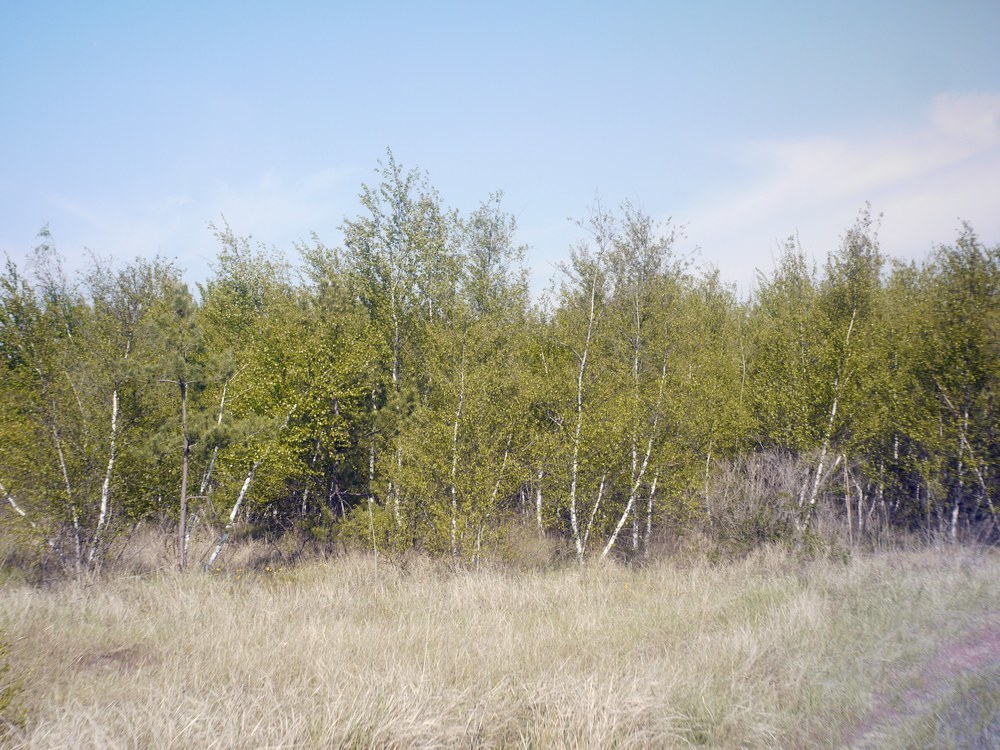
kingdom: Plantae
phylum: Tracheophyta
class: Magnoliopsida
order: Fagales
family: Betulaceae
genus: Betula
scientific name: Betula pubescens
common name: Downy birch
